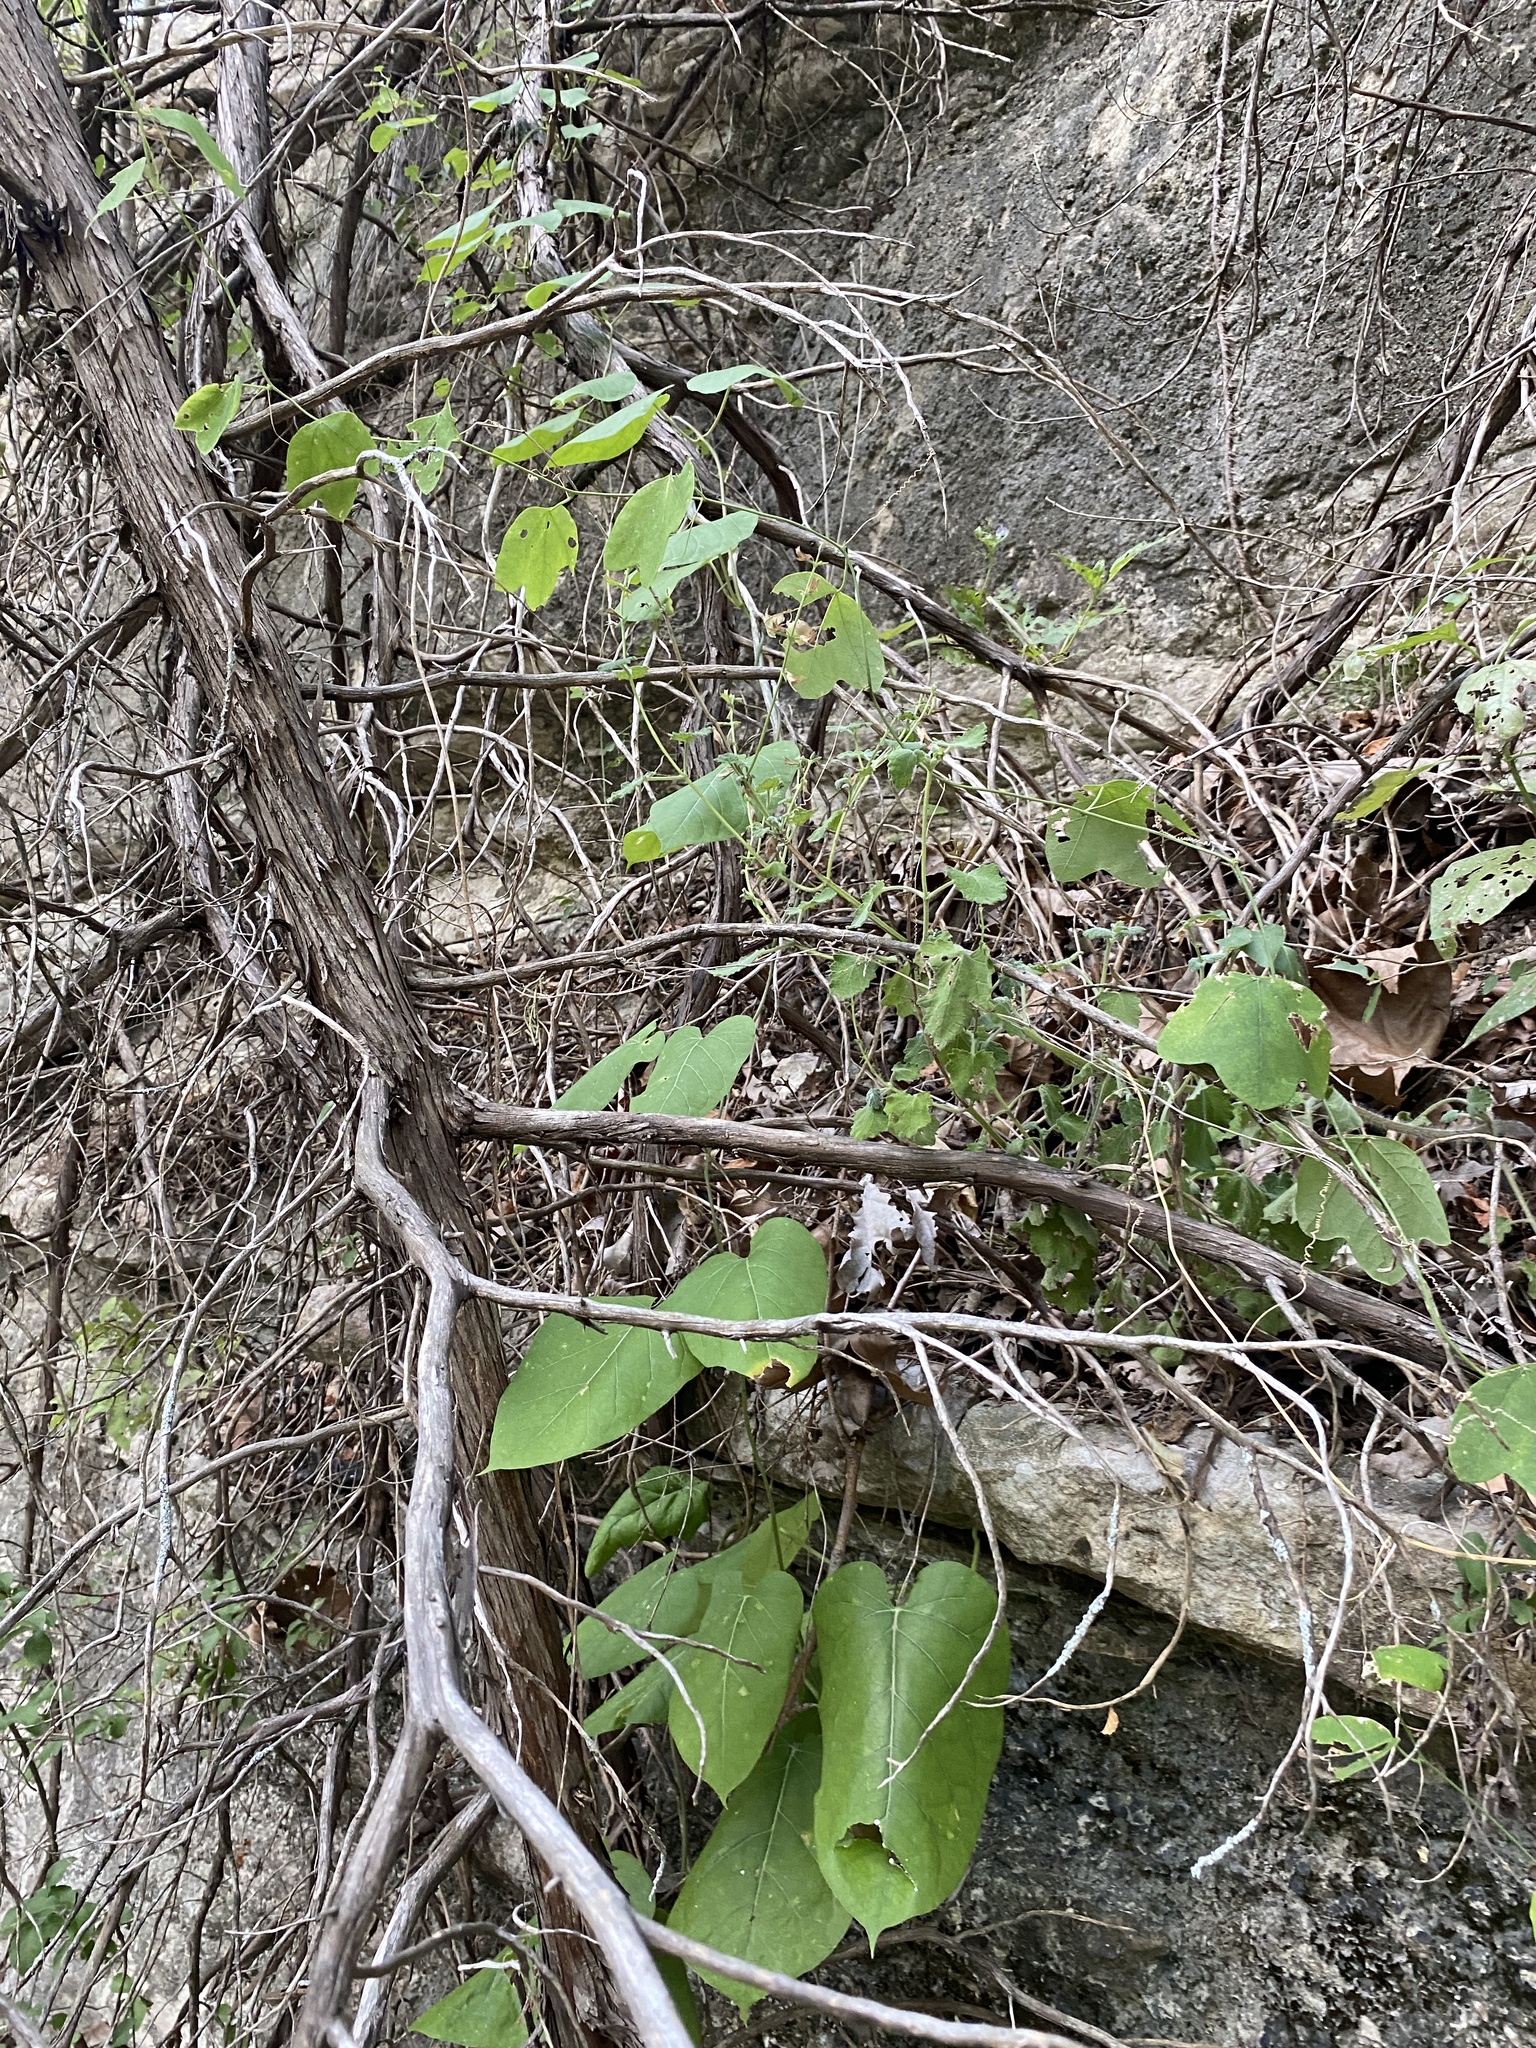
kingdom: Plantae
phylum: Tracheophyta
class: Magnoliopsida
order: Gentianales
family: Apocynaceae
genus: Gonolobus
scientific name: Gonolobus suberosus
